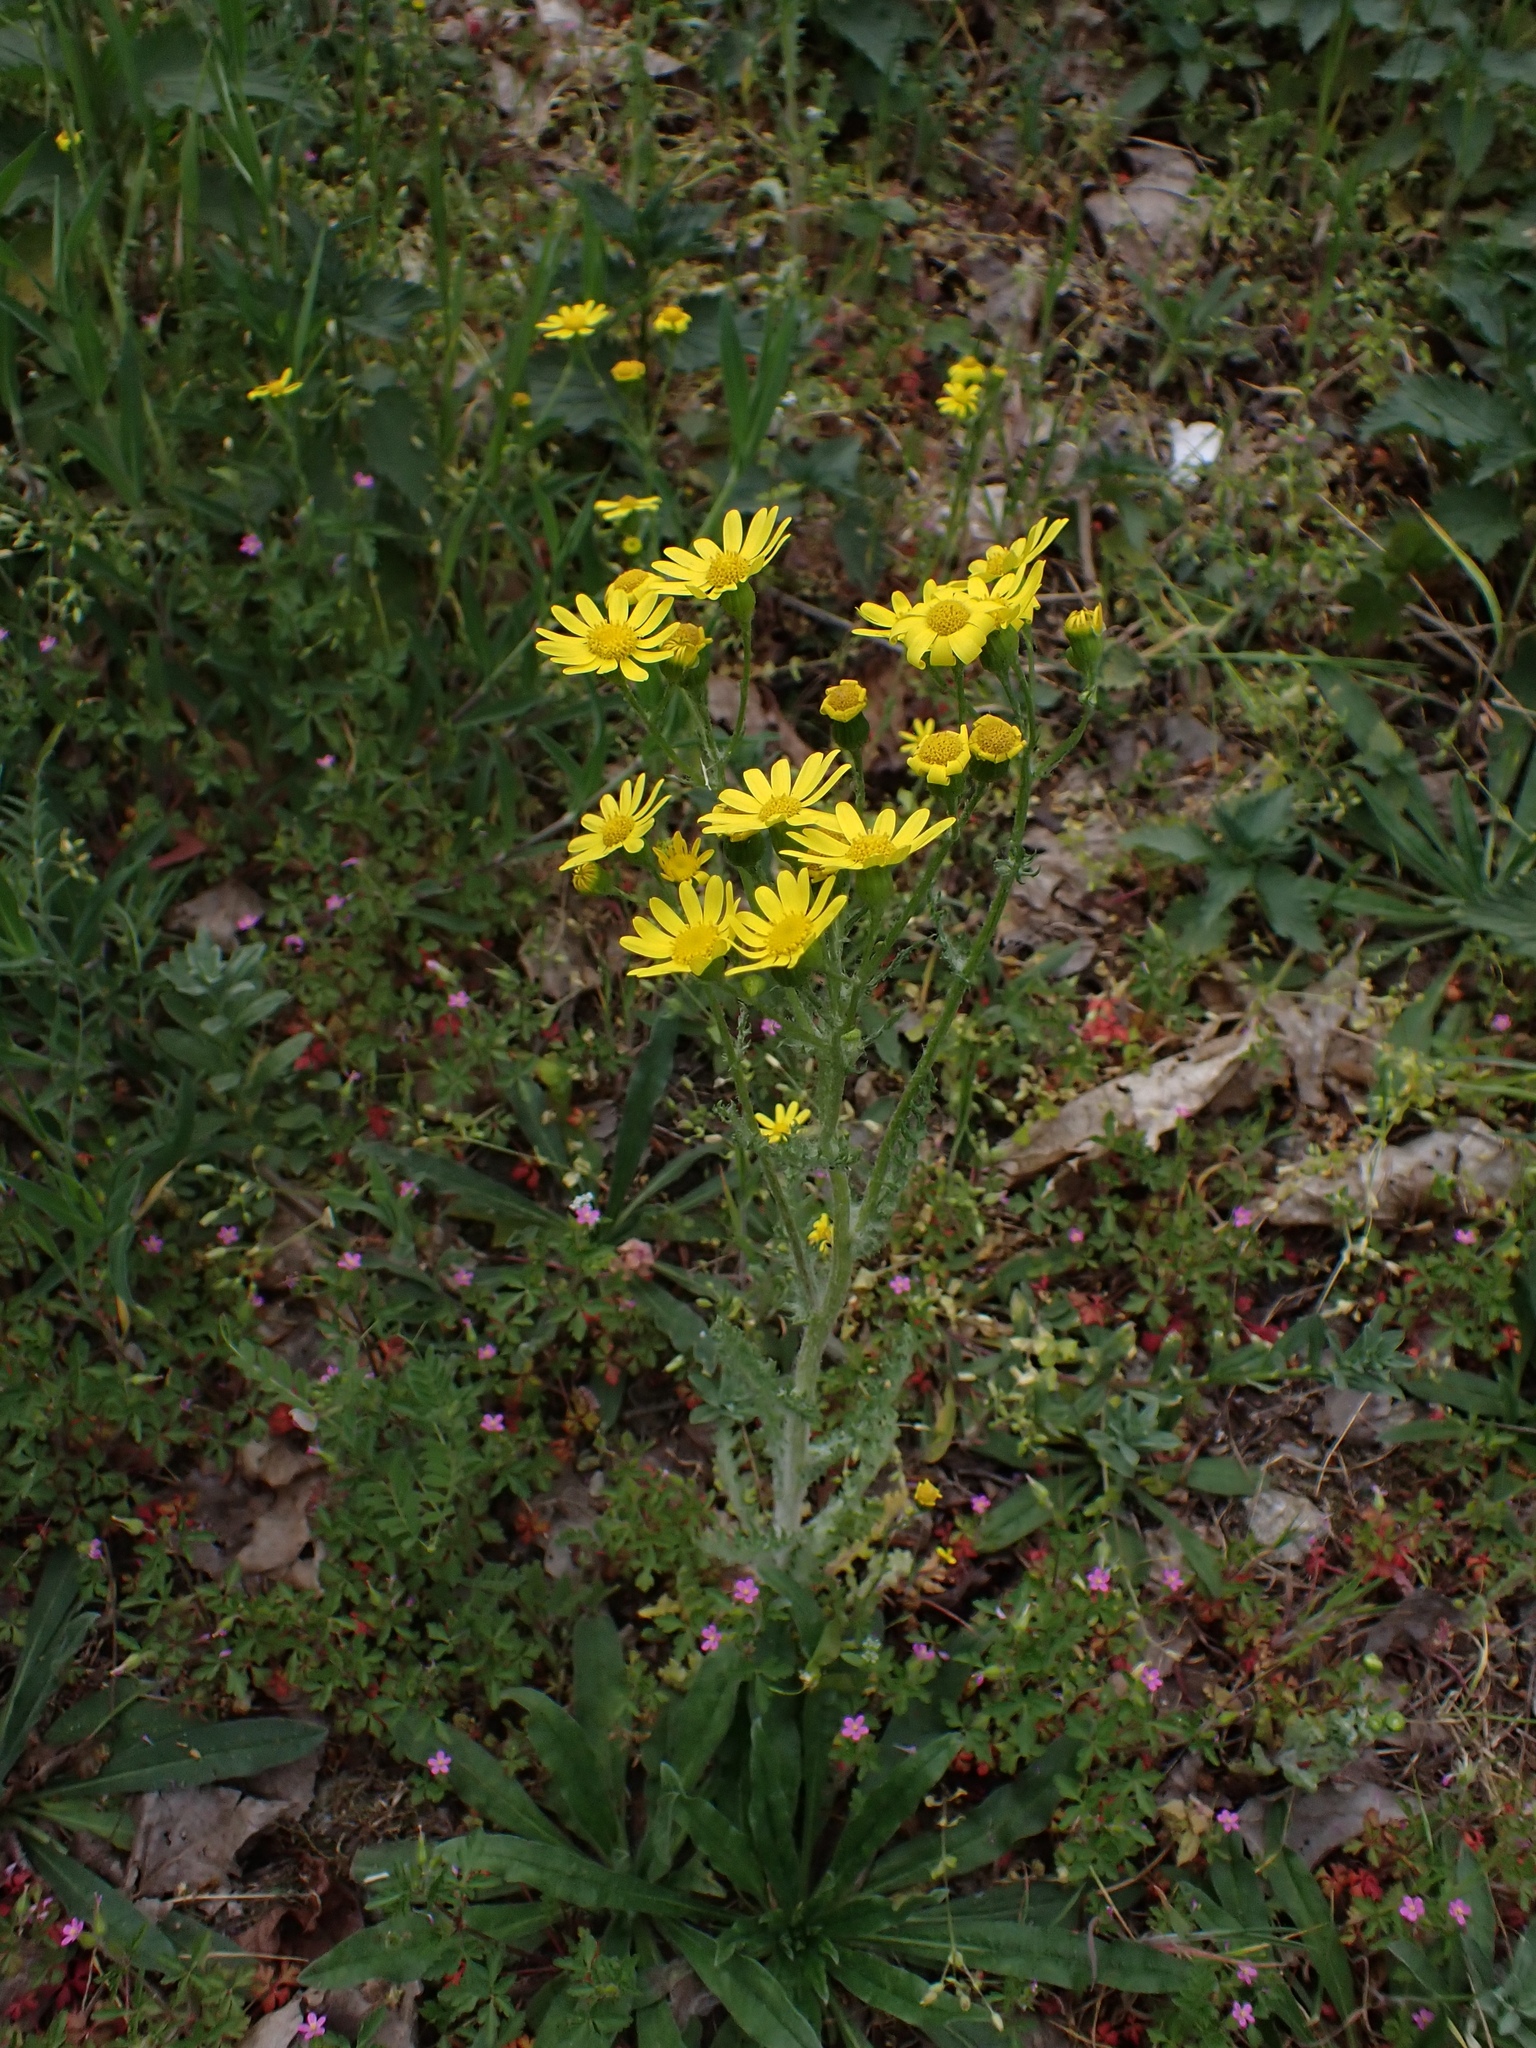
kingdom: Plantae
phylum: Tracheophyta
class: Magnoliopsida
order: Asterales
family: Asteraceae
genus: Senecio
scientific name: Senecio vernalis
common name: Eastern groundsel
